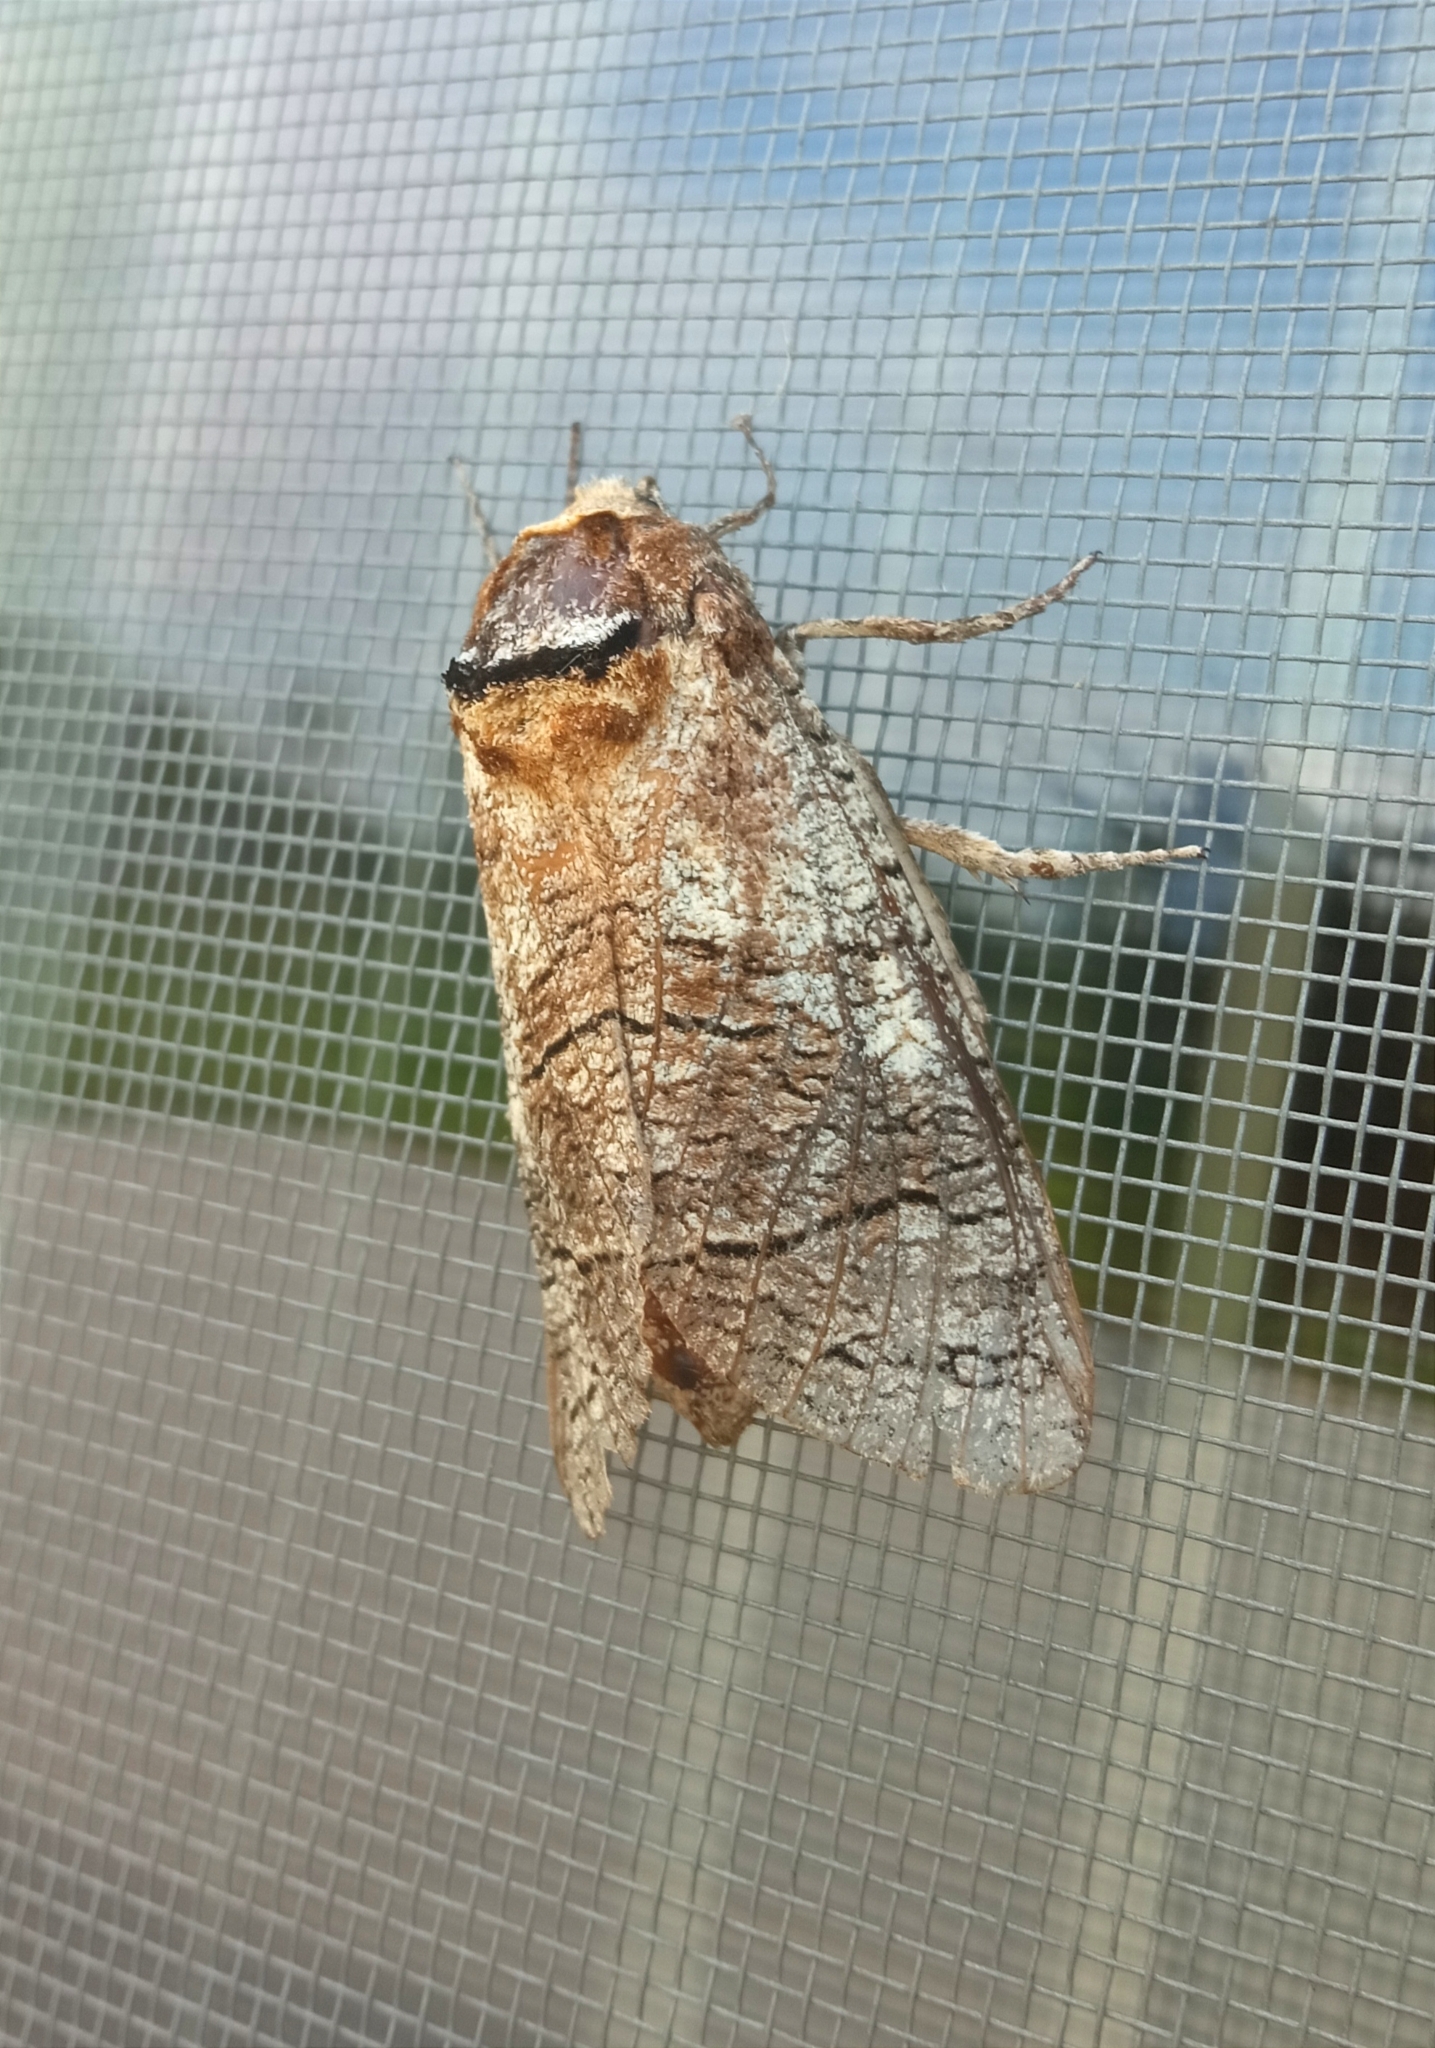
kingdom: Animalia
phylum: Arthropoda
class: Insecta
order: Lepidoptera
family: Cossidae
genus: Cossus
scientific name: Cossus cossus
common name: Goat moth
